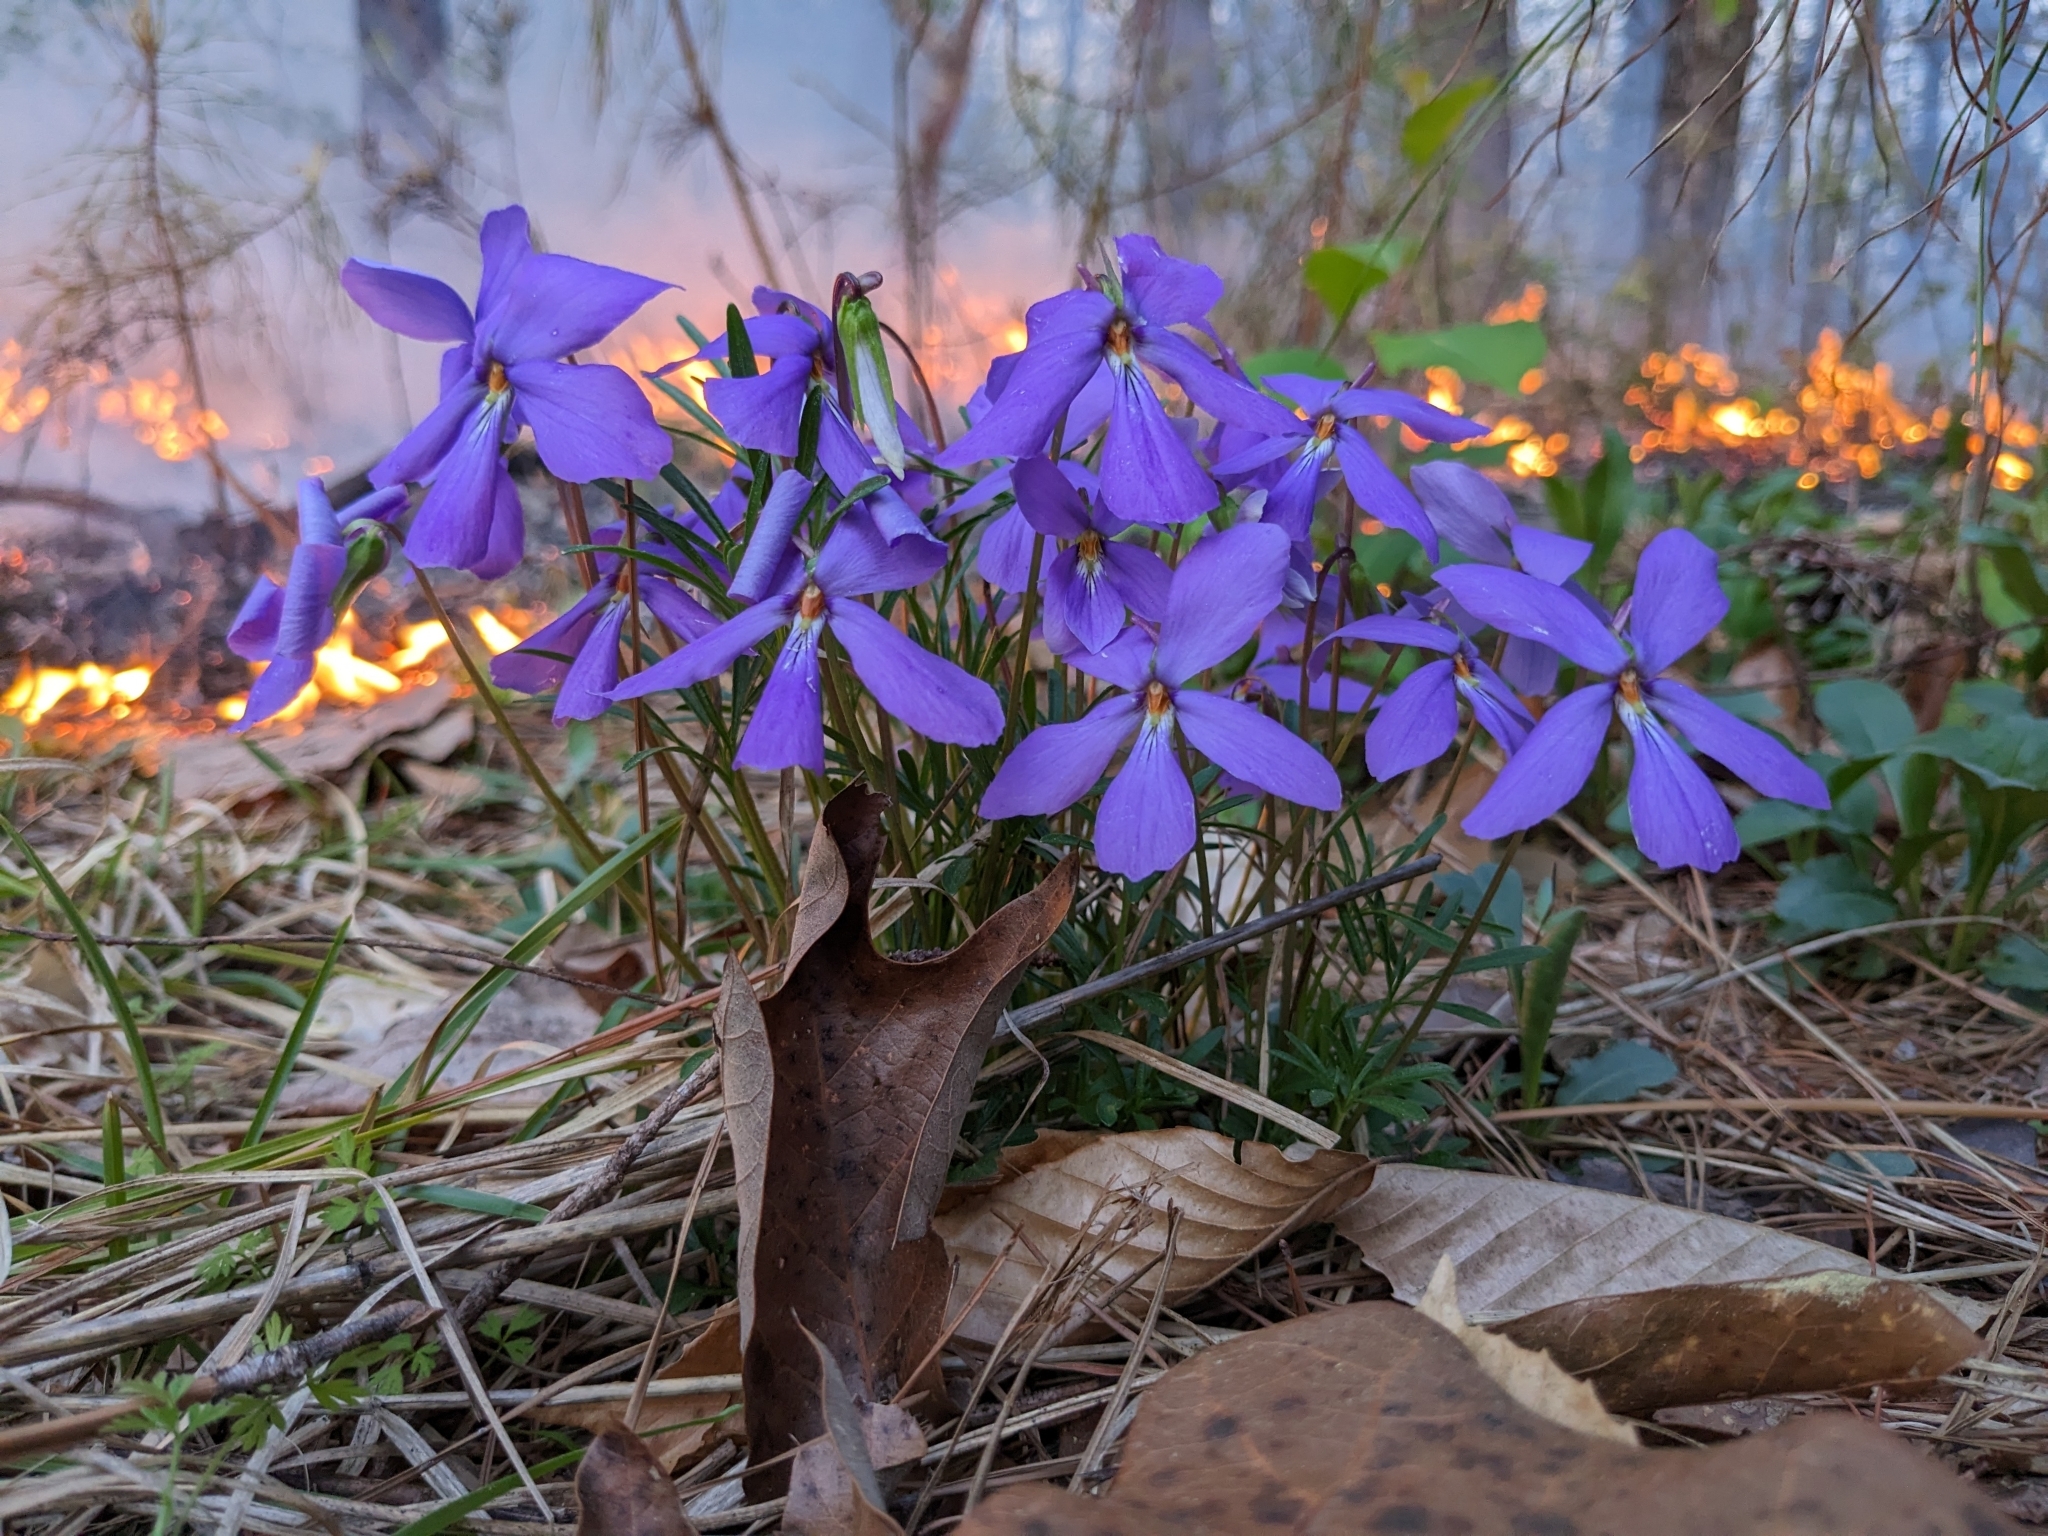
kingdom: Plantae
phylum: Tracheophyta
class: Magnoliopsida
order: Malpighiales
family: Violaceae
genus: Viola
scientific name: Viola pedata
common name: Pansy violet
